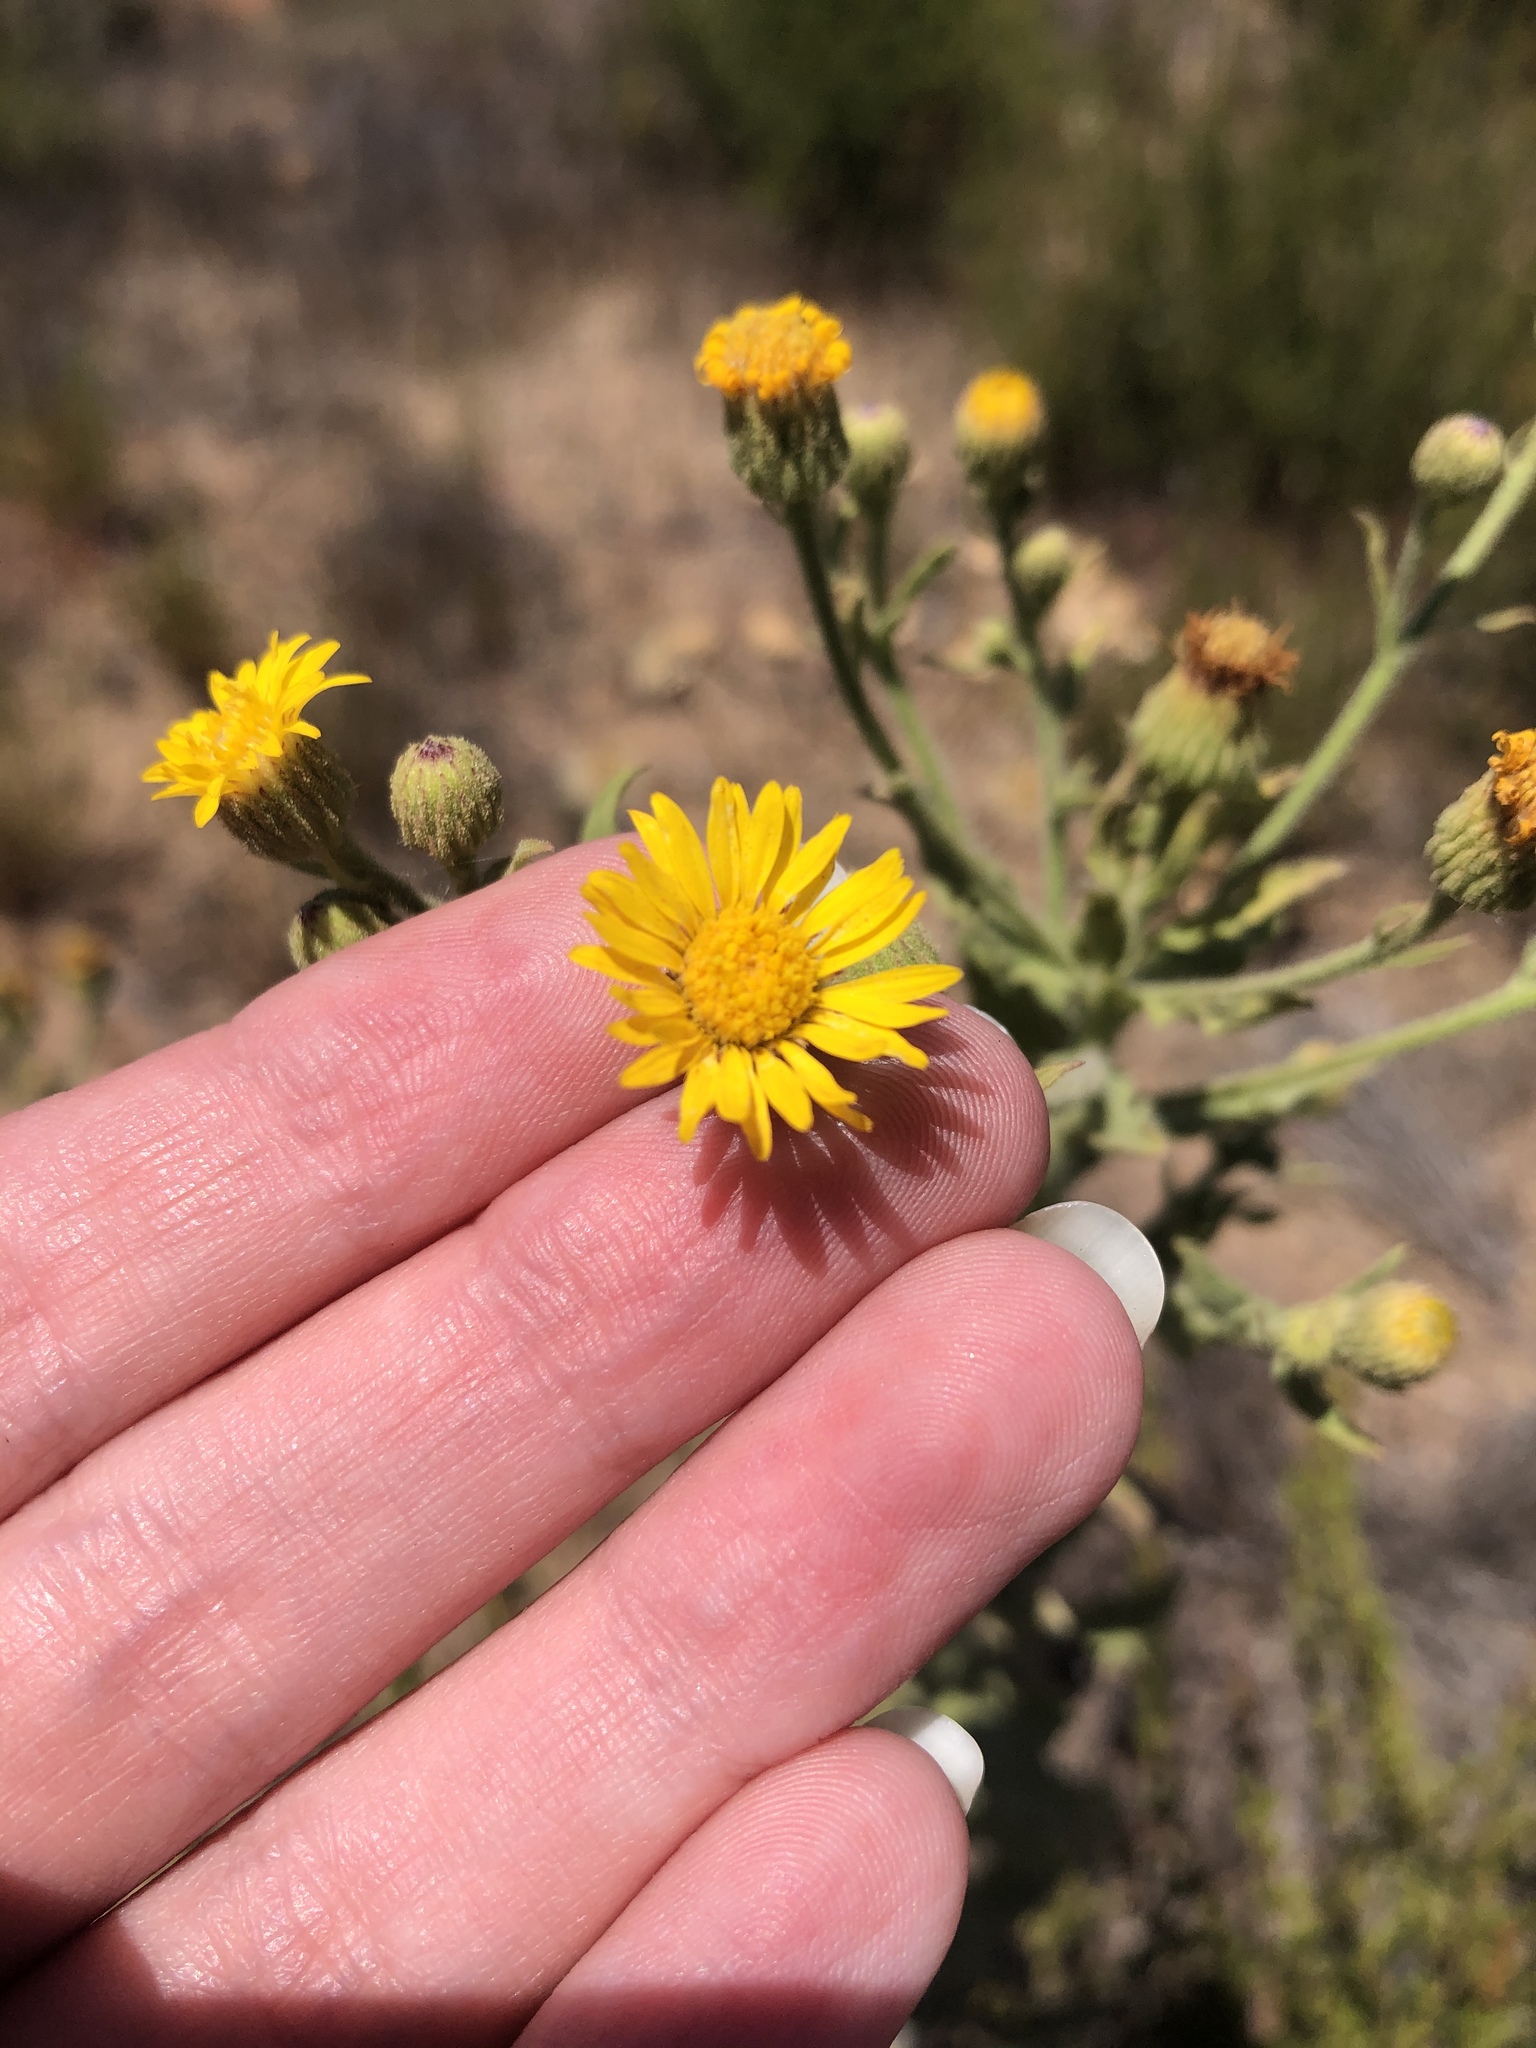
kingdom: Plantae
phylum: Tracheophyta
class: Magnoliopsida
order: Asterales
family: Asteraceae
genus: Heterotheca
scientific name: Heterotheca grandiflora
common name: Telegraphweed
